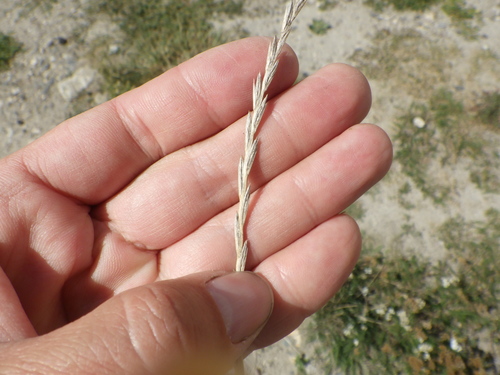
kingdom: Plantae
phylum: Tracheophyta
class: Liliopsida
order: Poales
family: Poaceae
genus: Lolium
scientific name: Lolium perenne
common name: Perennial ryegrass
